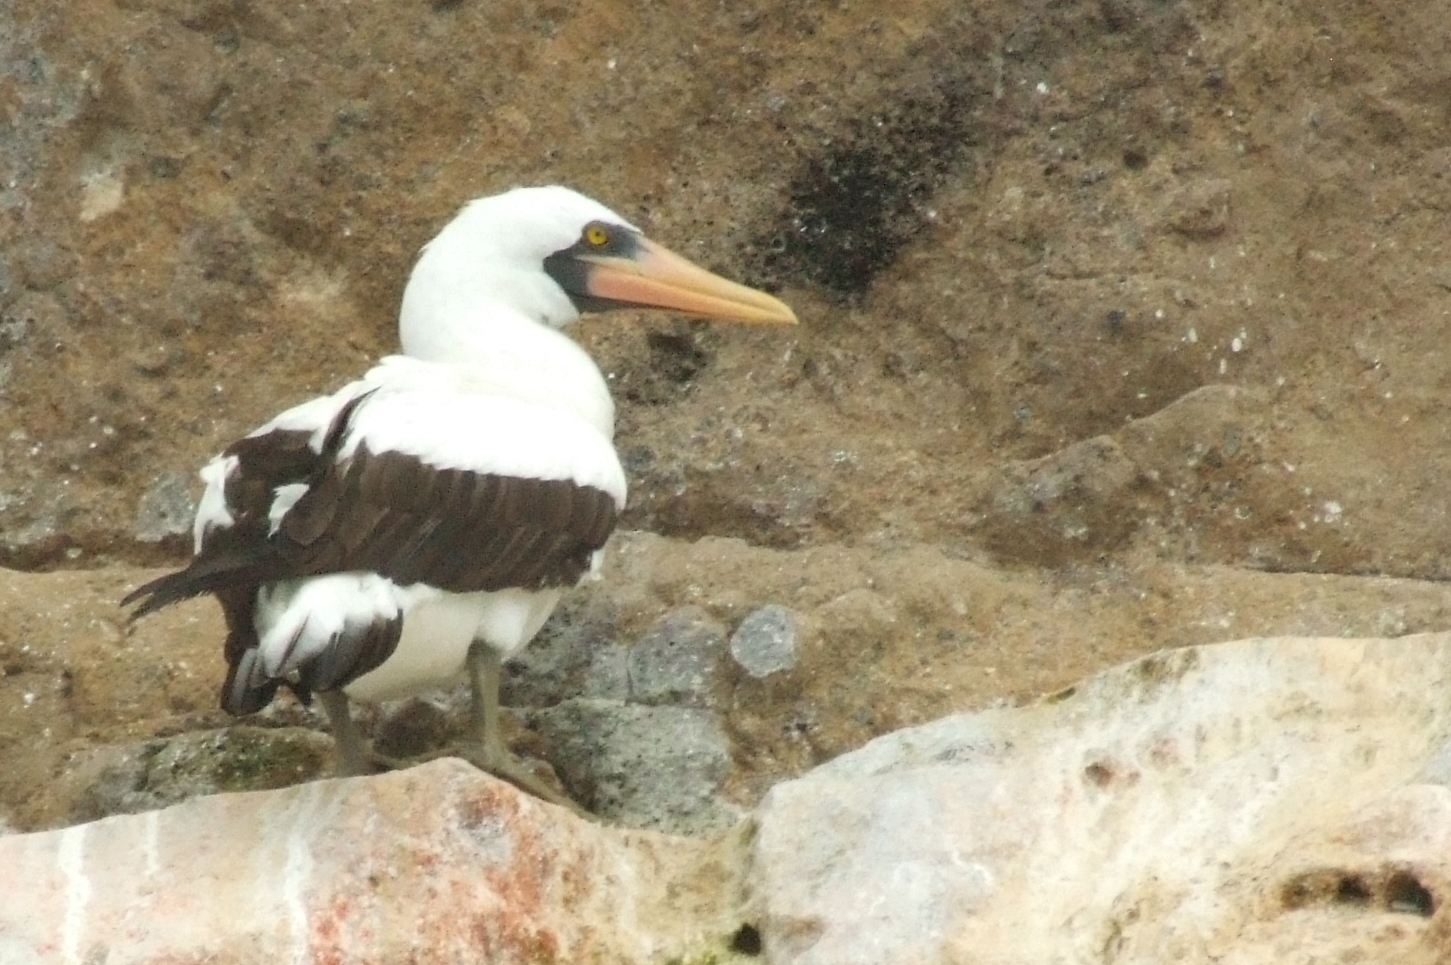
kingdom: Animalia
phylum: Chordata
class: Aves
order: Suliformes
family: Sulidae
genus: Sula
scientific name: Sula granti
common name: Nazca booby
